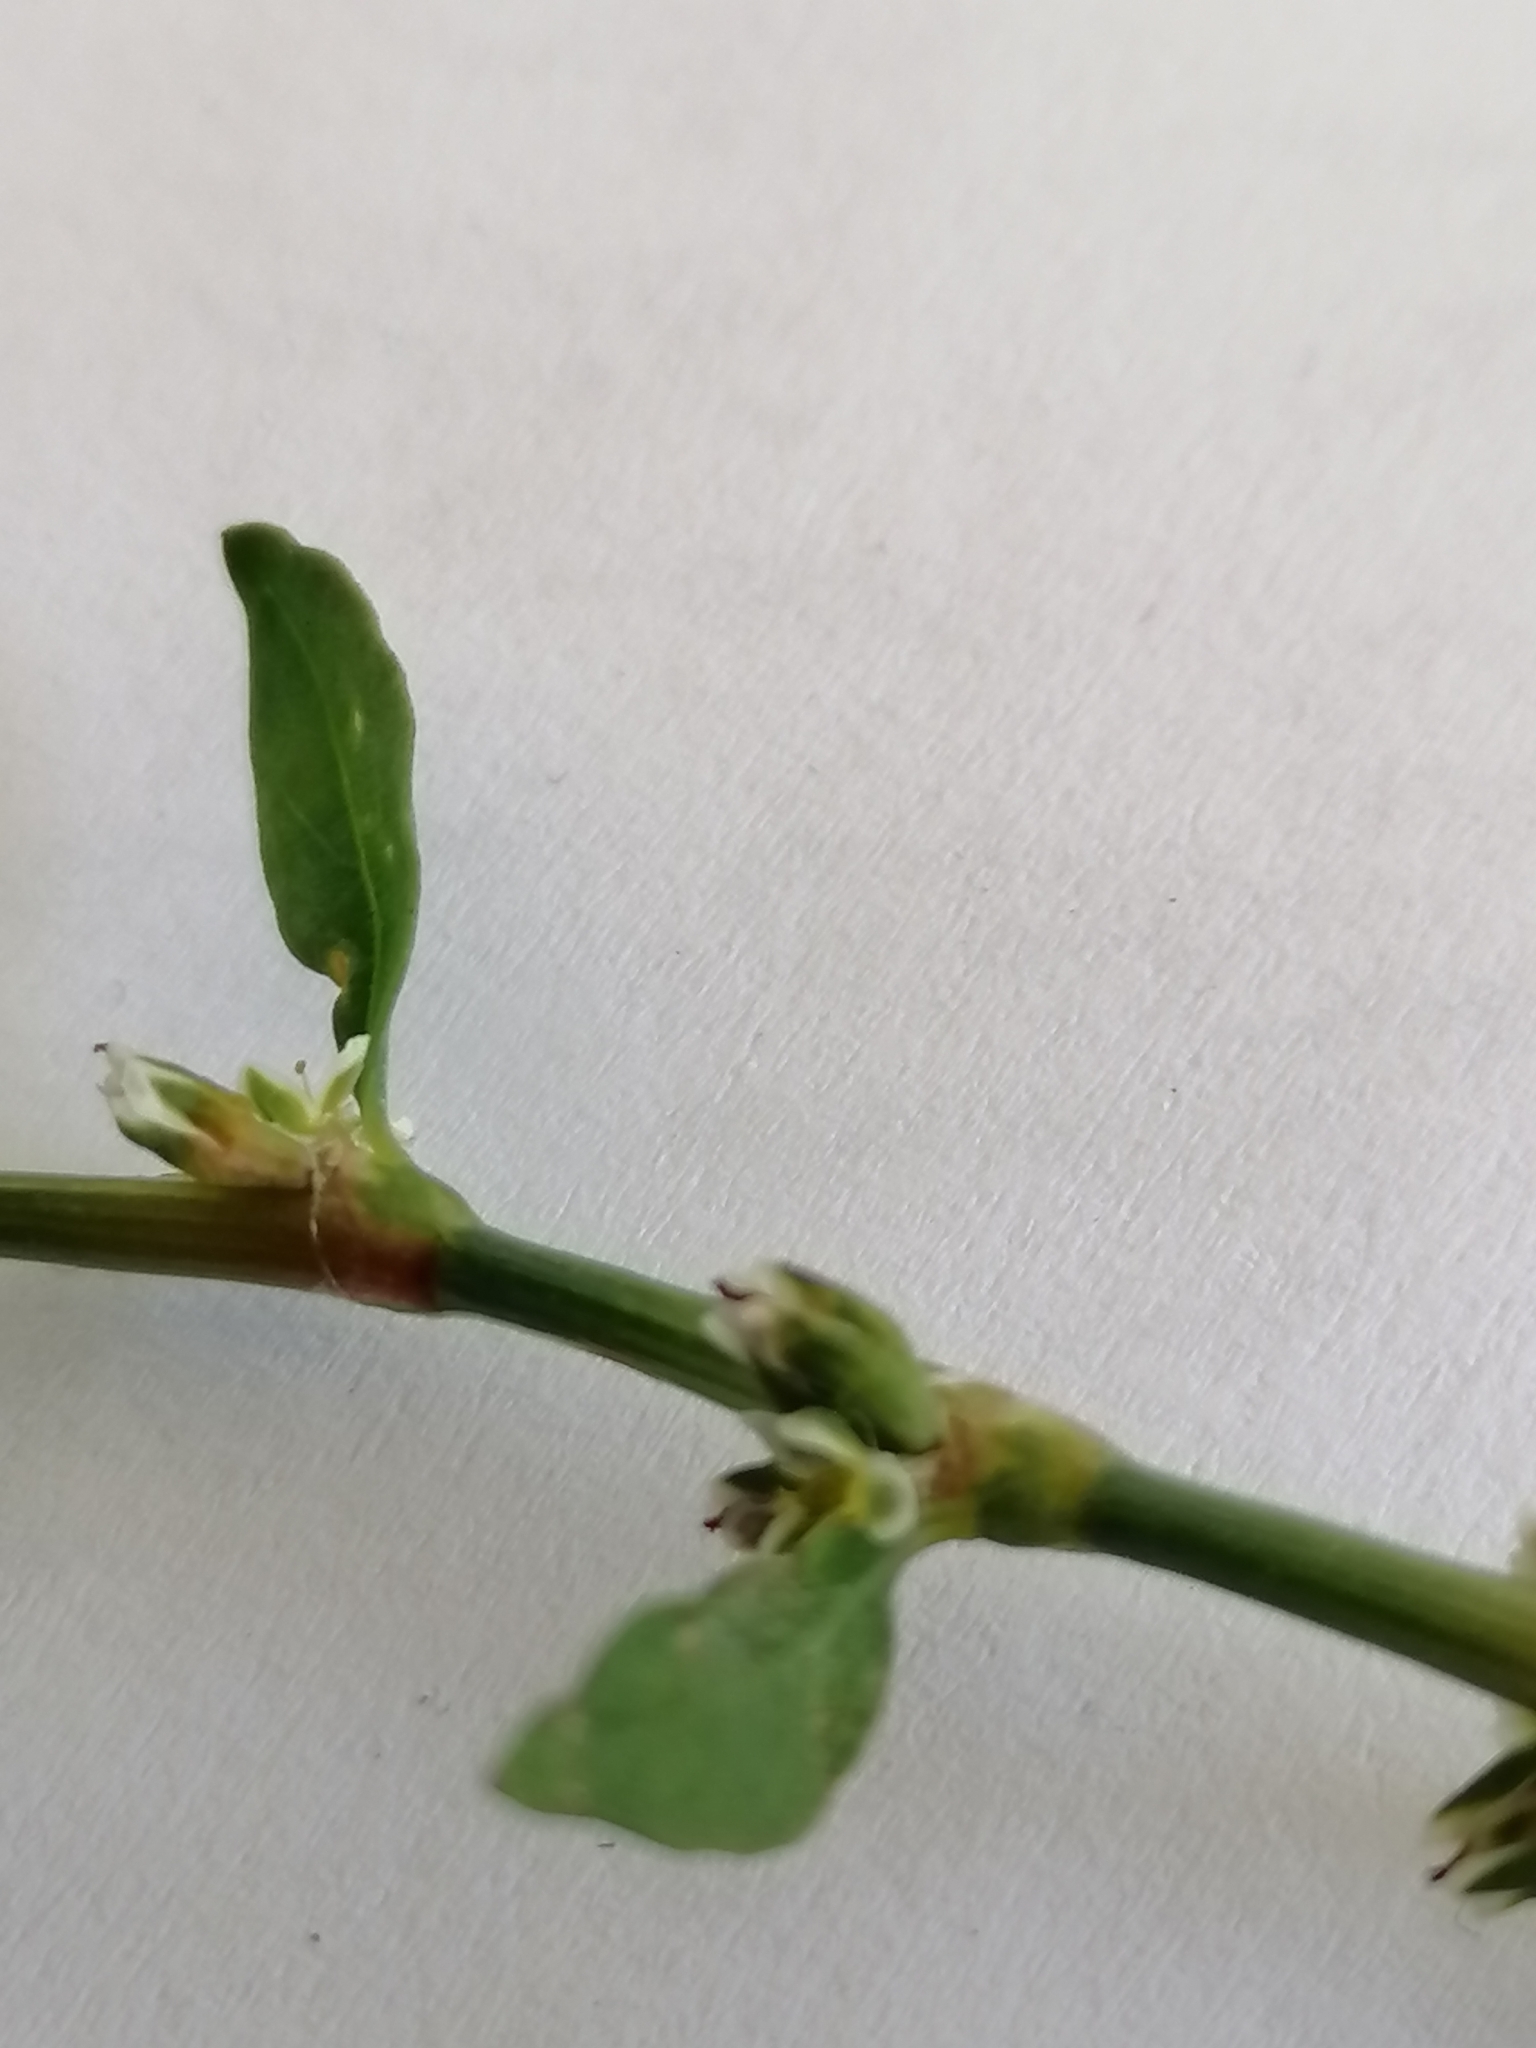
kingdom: Plantae
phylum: Tracheophyta
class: Magnoliopsida
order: Caryophyllales
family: Polygonaceae
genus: Polygonum
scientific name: Polygonum
